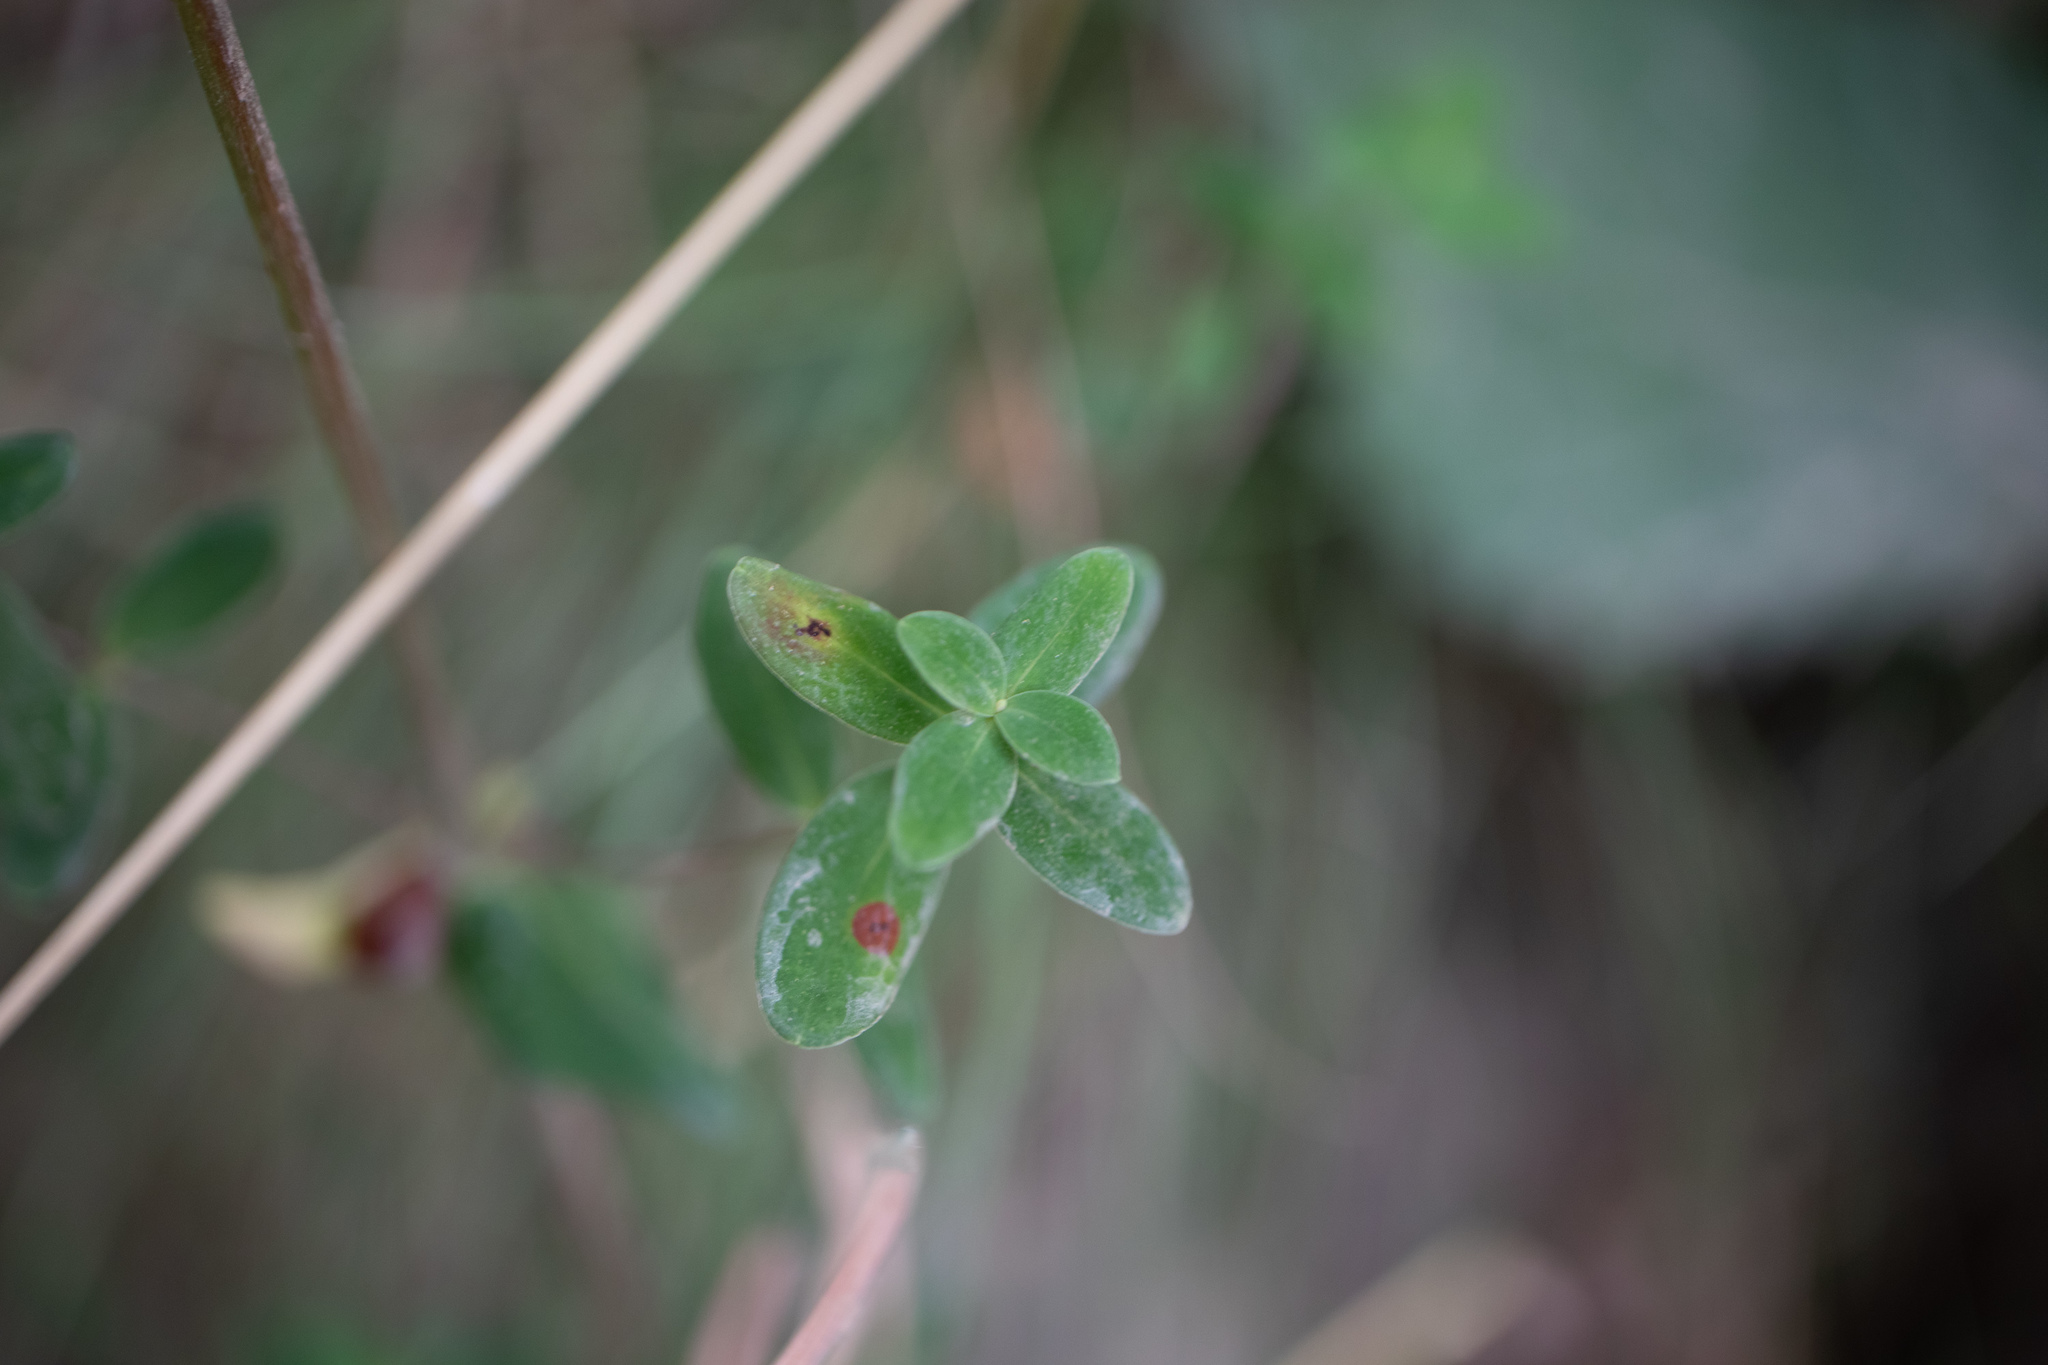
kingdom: Plantae
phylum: Tracheophyta
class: Magnoliopsida
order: Malpighiales
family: Hypericaceae
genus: Hypericum
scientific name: Hypericum pulchrum
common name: Slender st. john's-wort
